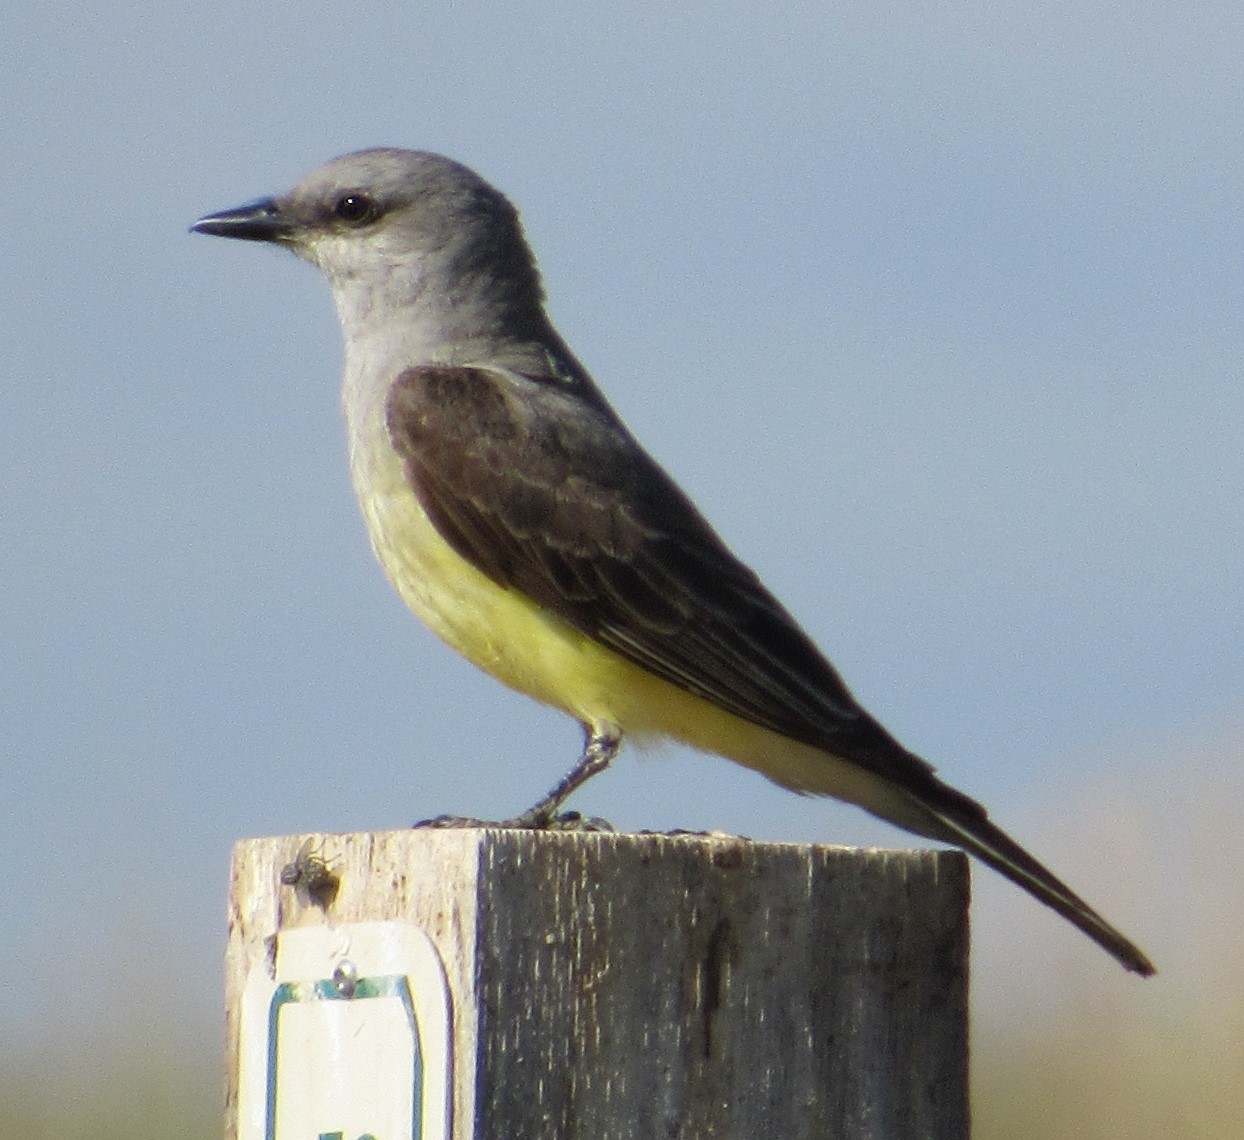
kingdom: Animalia
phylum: Chordata
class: Aves
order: Passeriformes
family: Tyrannidae
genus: Tyrannus
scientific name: Tyrannus verticalis
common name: Western kingbird
